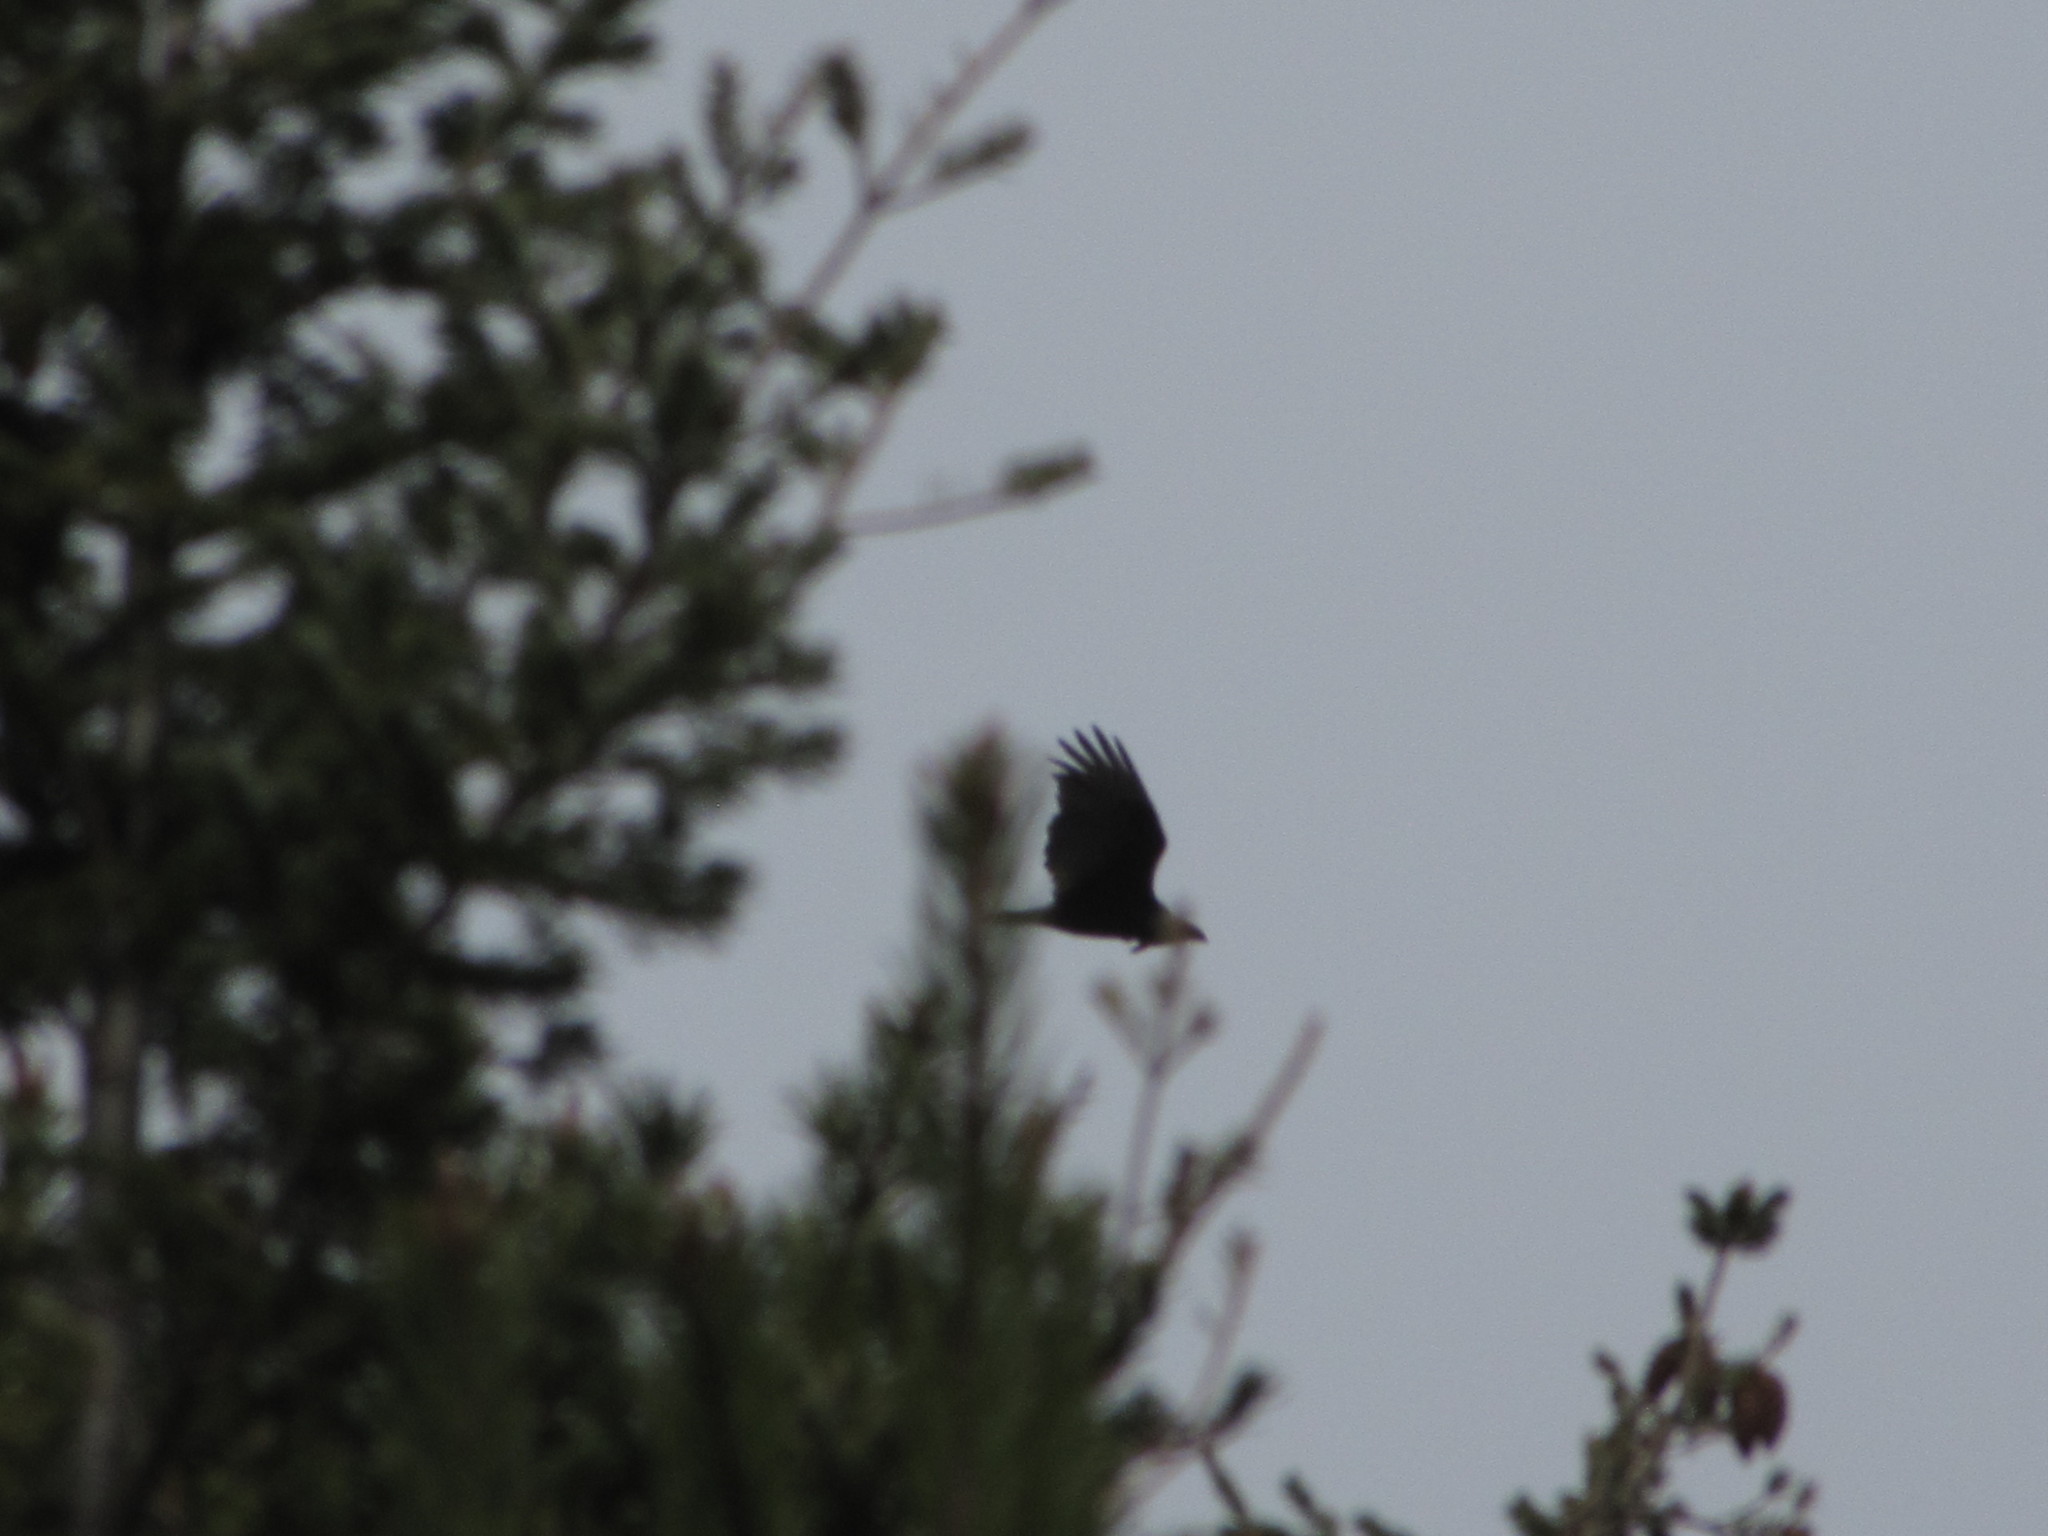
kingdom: Animalia
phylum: Chordata
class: Aves
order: Accipitriformes
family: Accipitridae
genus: Haliaeetus
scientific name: Haliaeetus leucocephalus
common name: Bald eagle
